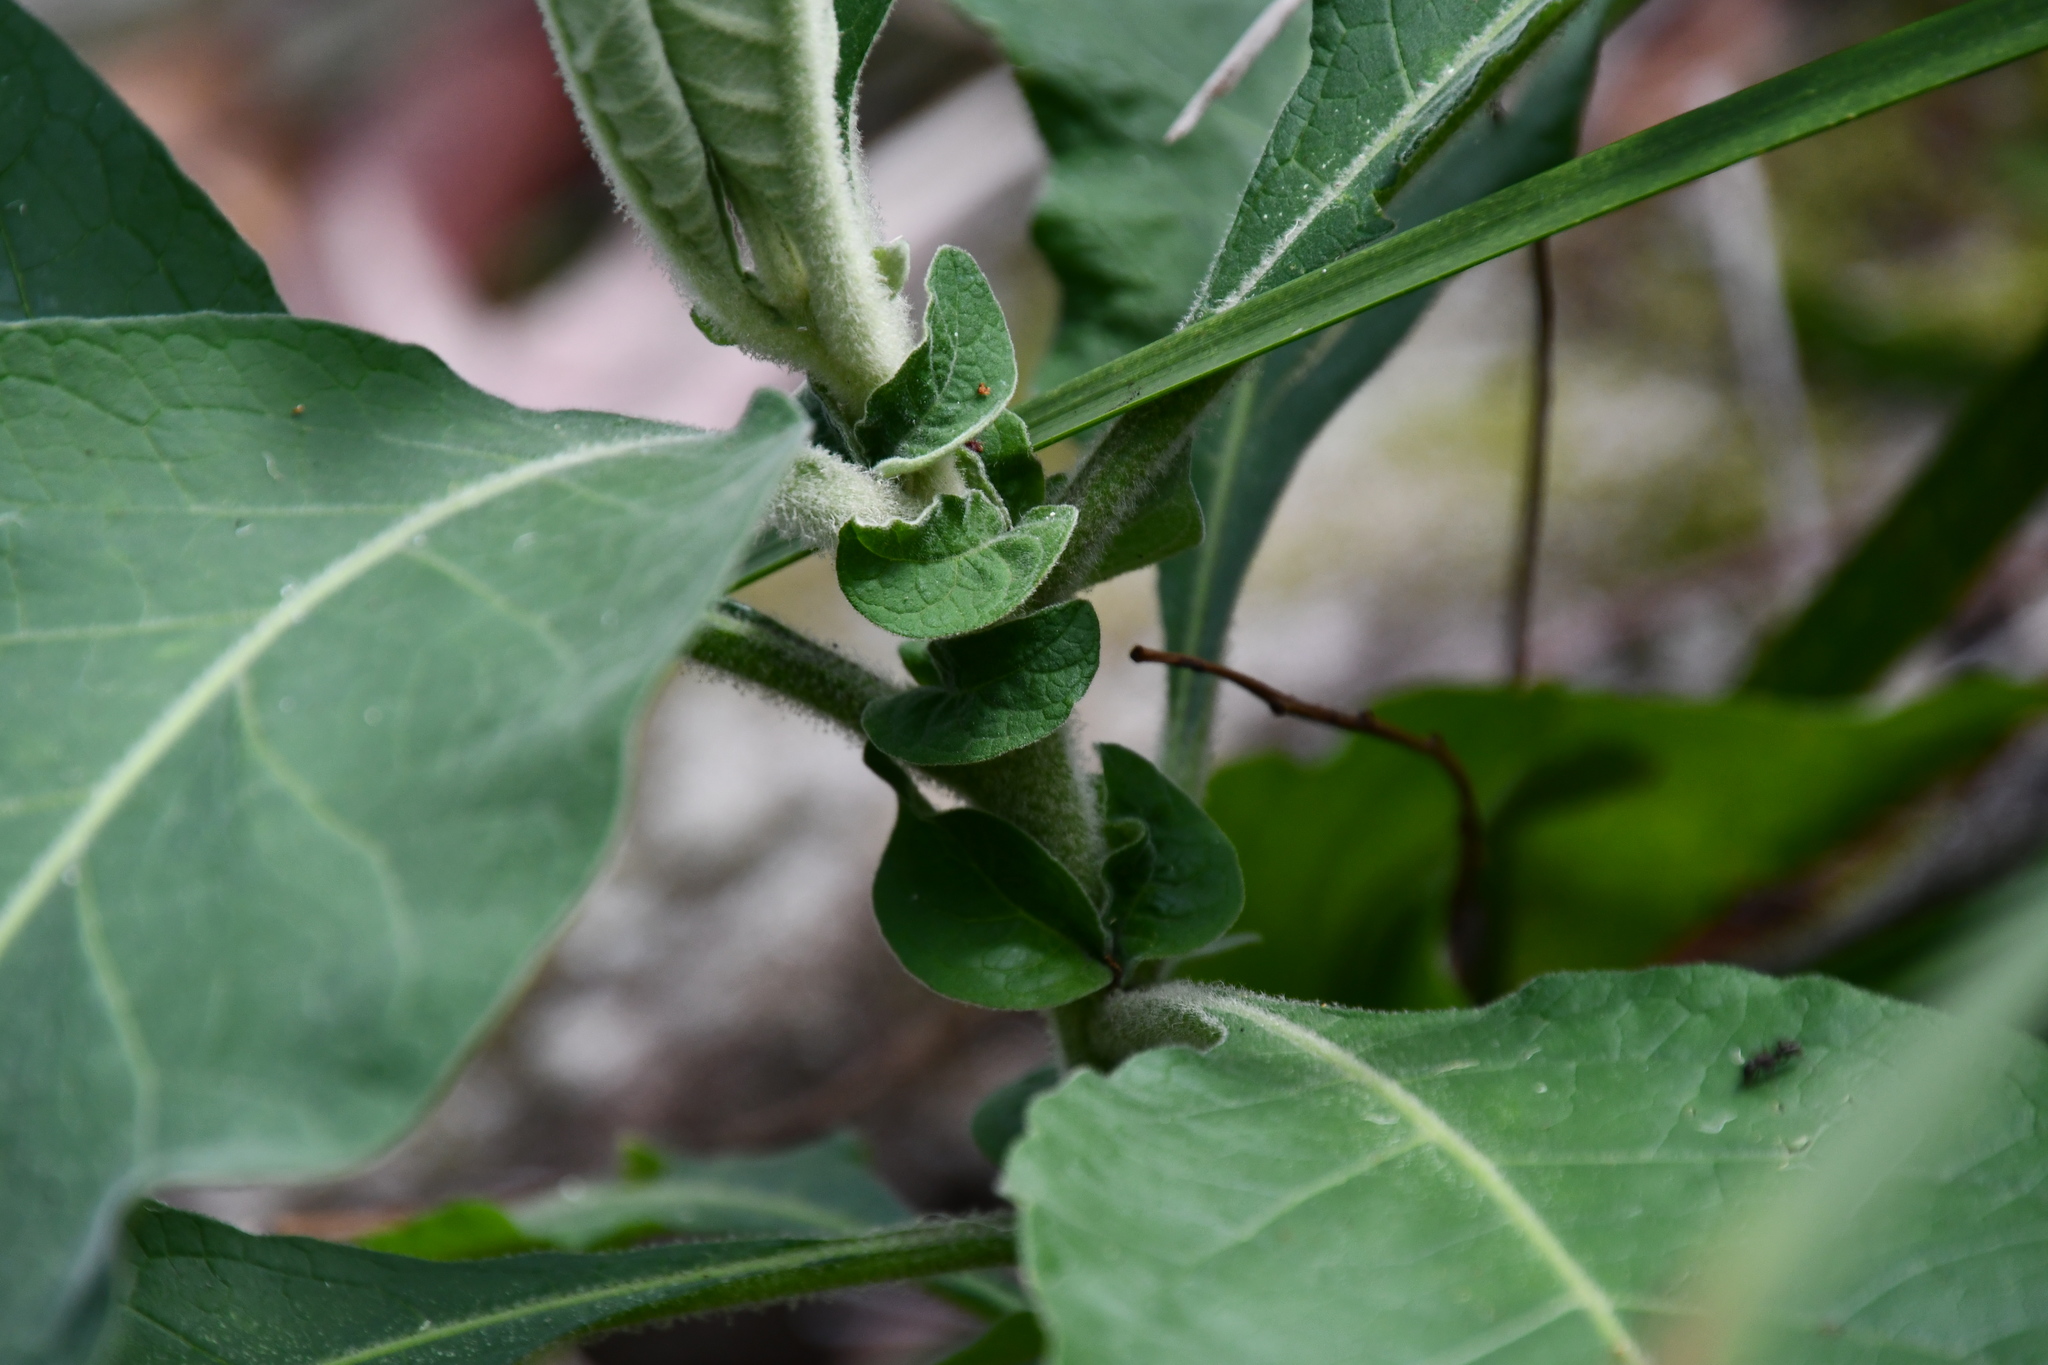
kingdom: Plantae
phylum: Tracheophyta
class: Magnoliopsida
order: Solanales
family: Solanaceae
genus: Solanum
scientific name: Solanum mauritianum
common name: Earleaf nightshade
